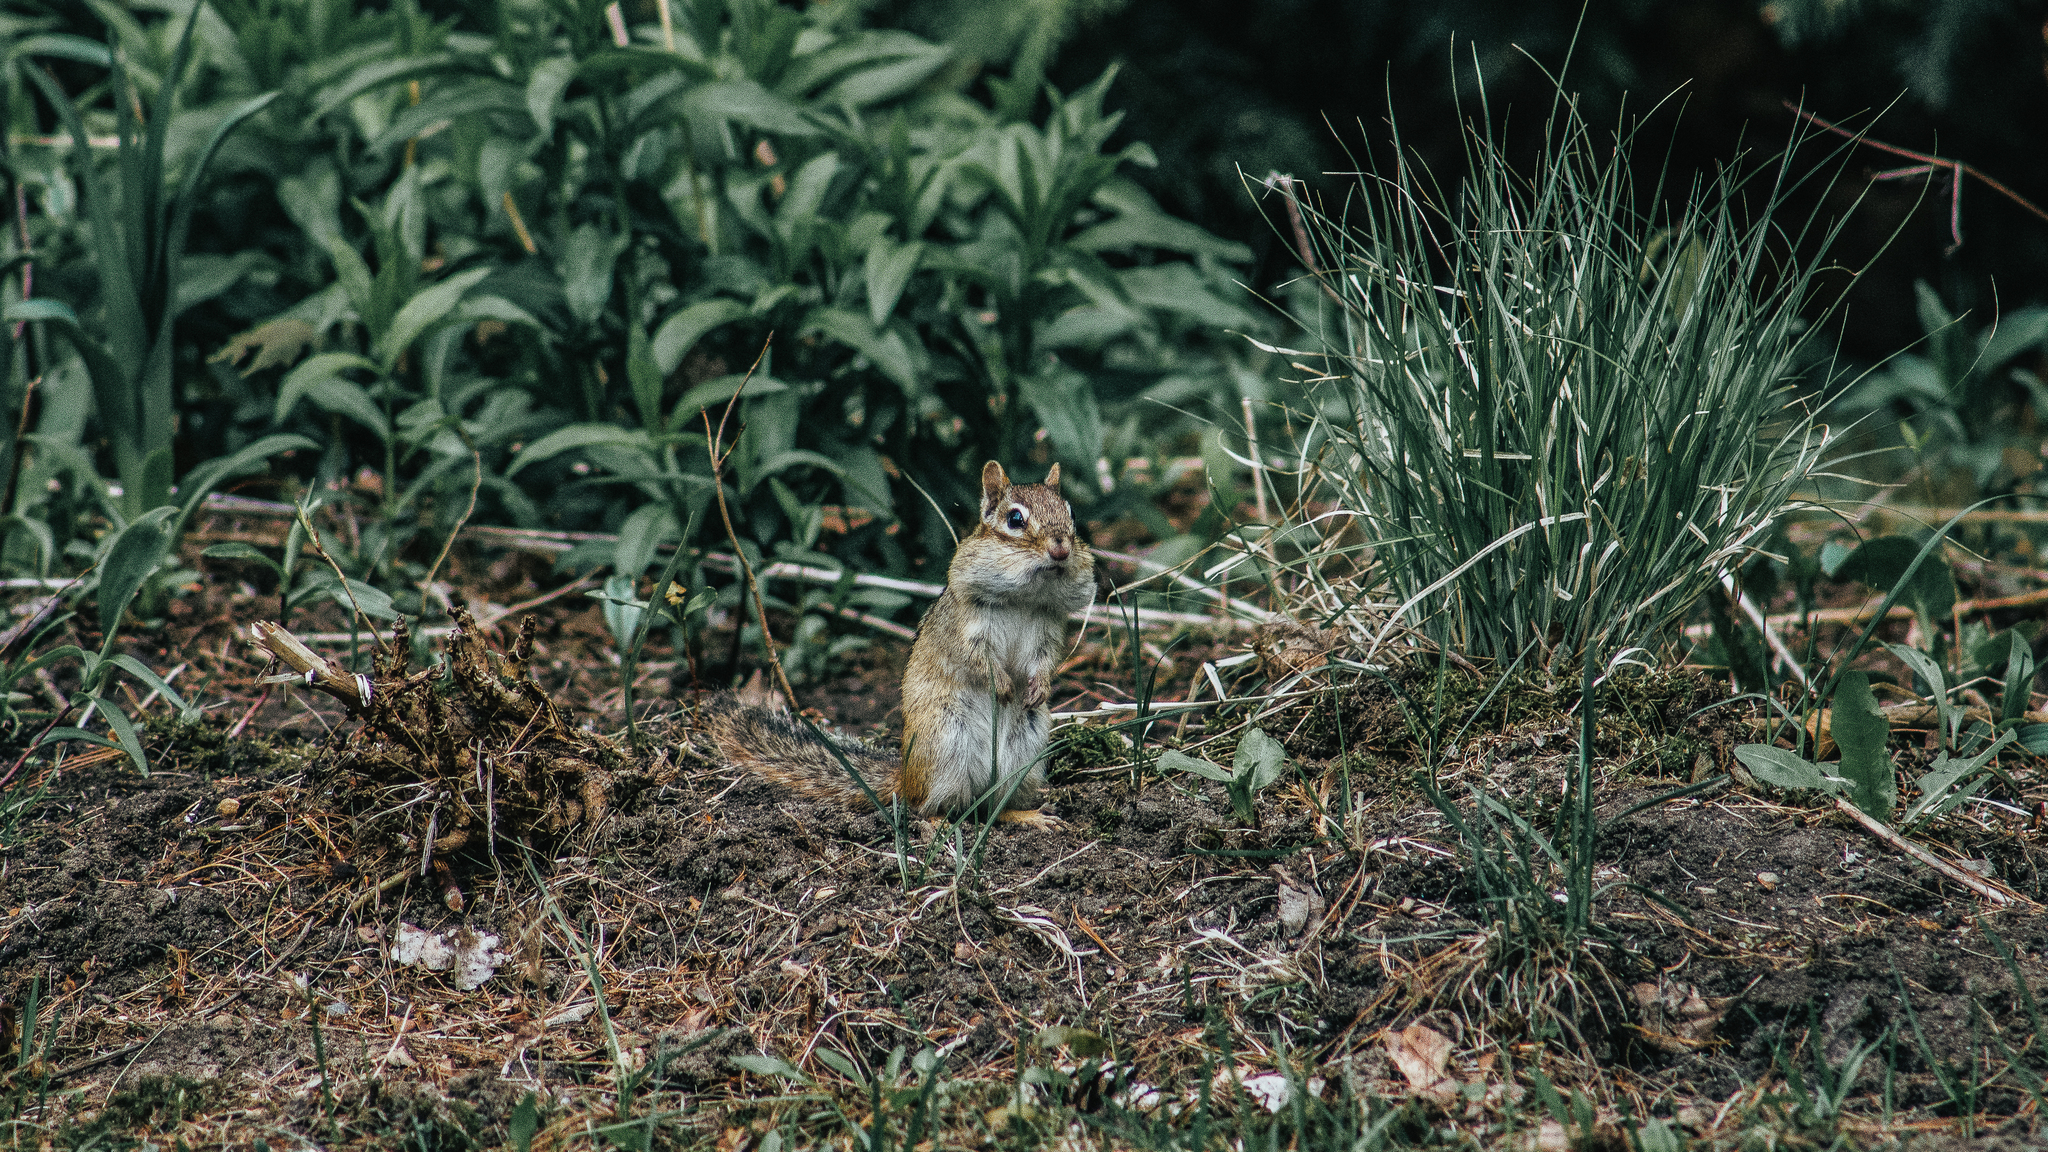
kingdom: Animalia
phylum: Chordata
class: Mammalia
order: Rodentia
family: Sciuridae
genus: Tamias
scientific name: Tamias striatus
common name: Eastern chipmunk
